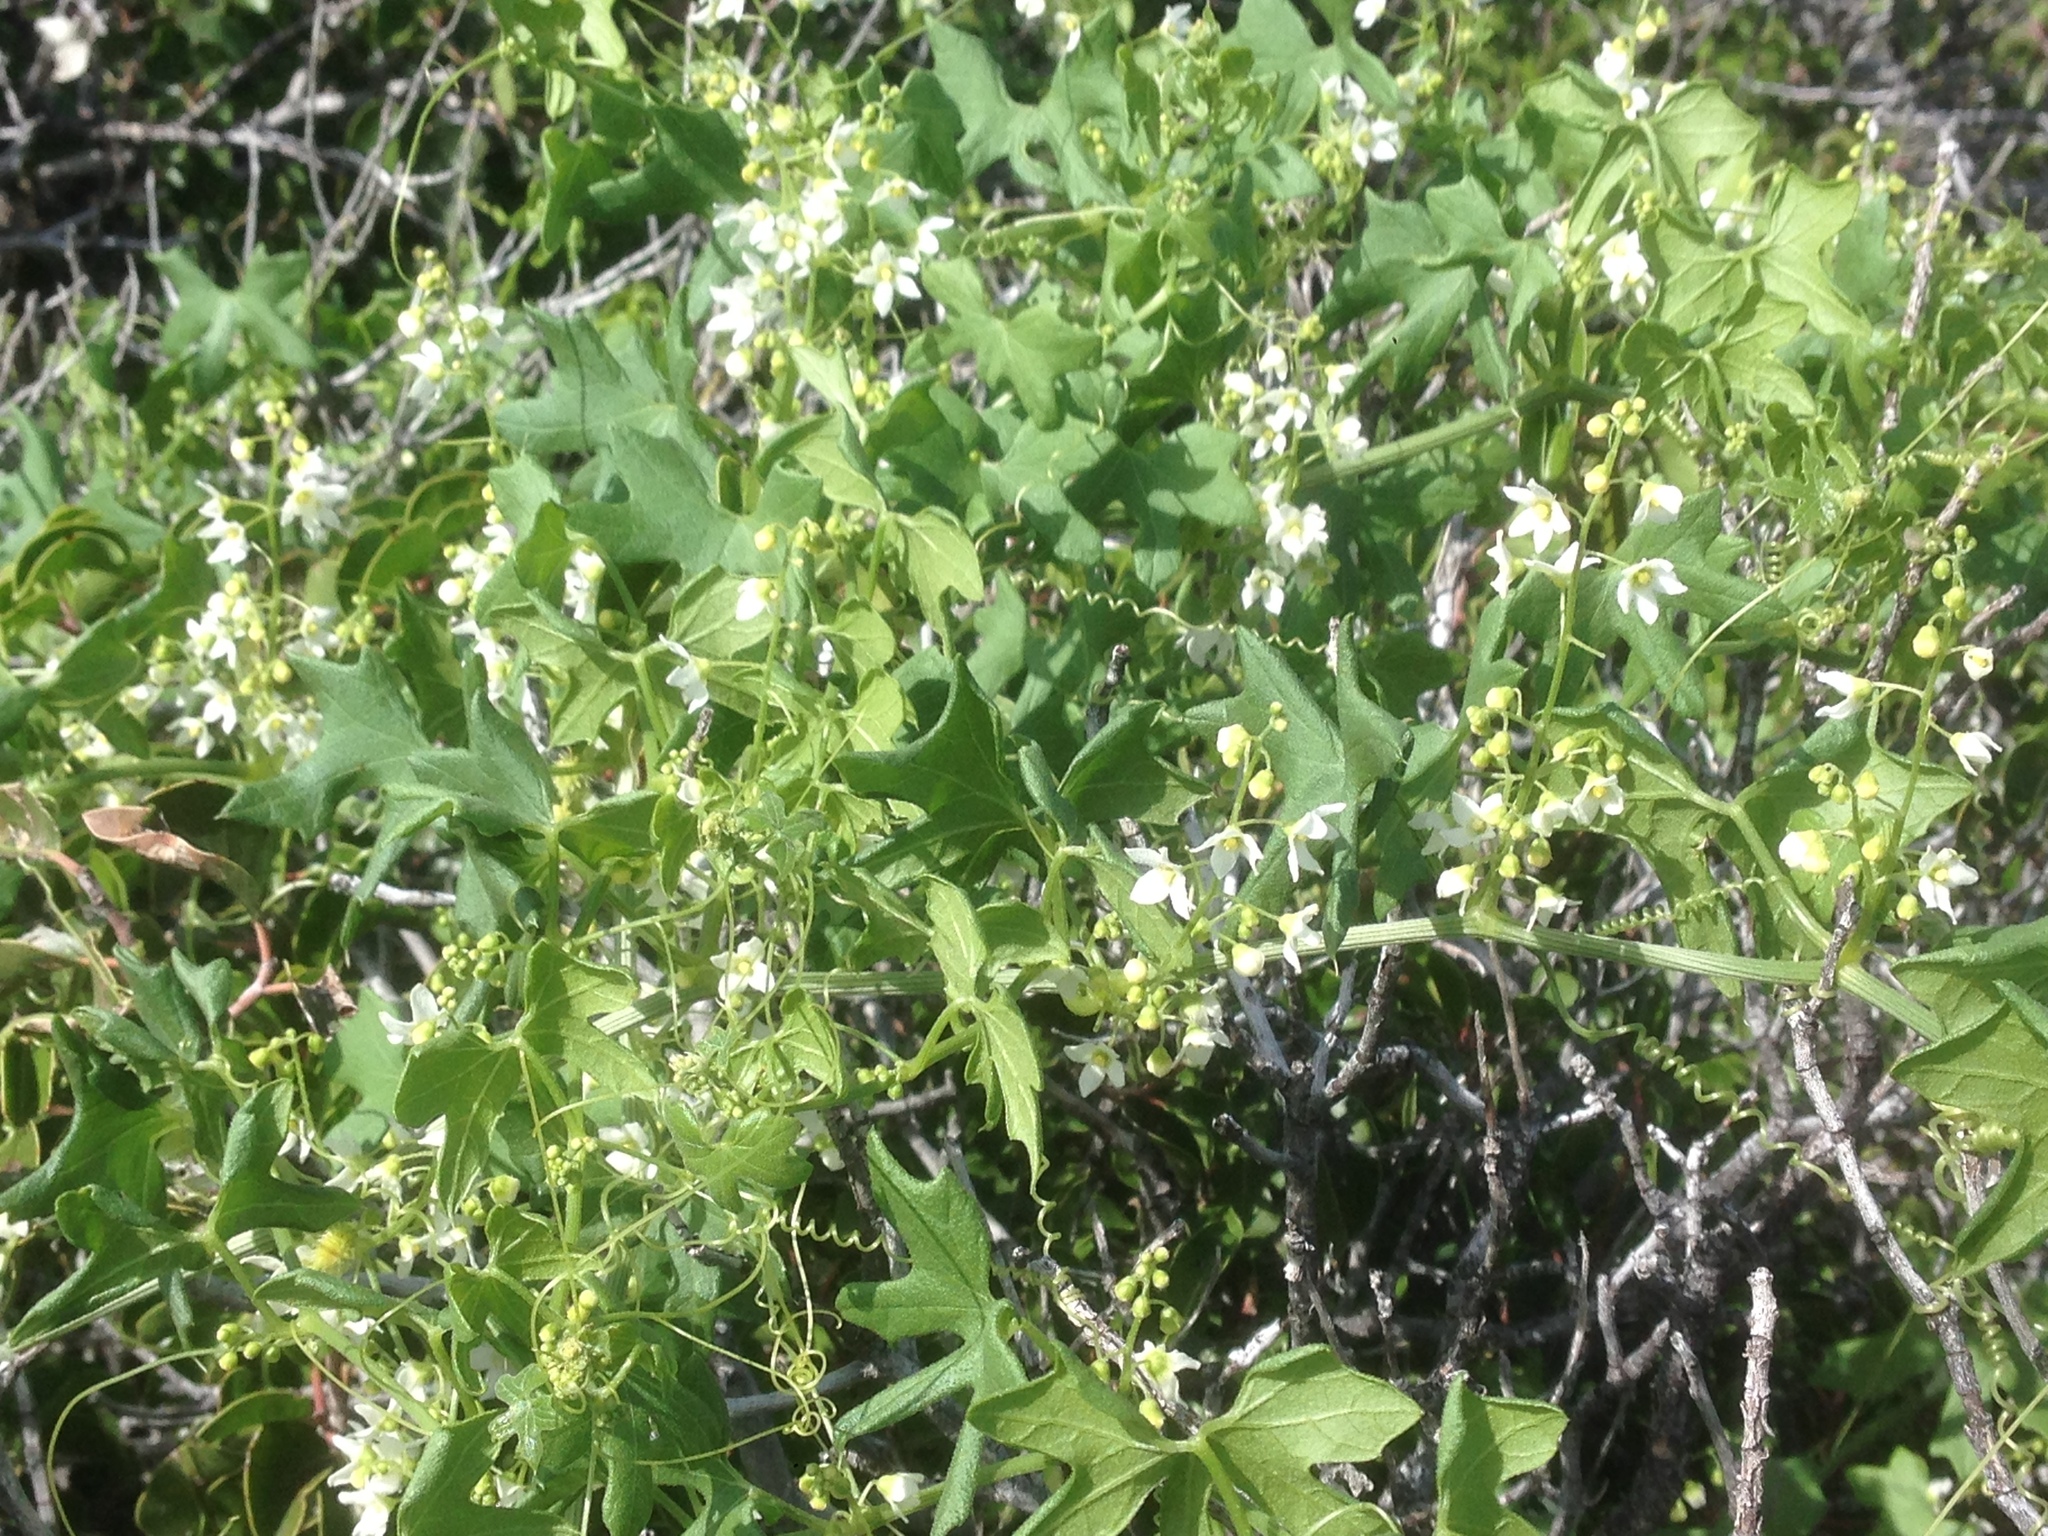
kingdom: Plantae
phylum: Tracheophyta
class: Magnoliopsida
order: Cucurbitales
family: Cucurbitaceae
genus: Marah
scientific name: Marah macrocarpa
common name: Cucamonga manroot
